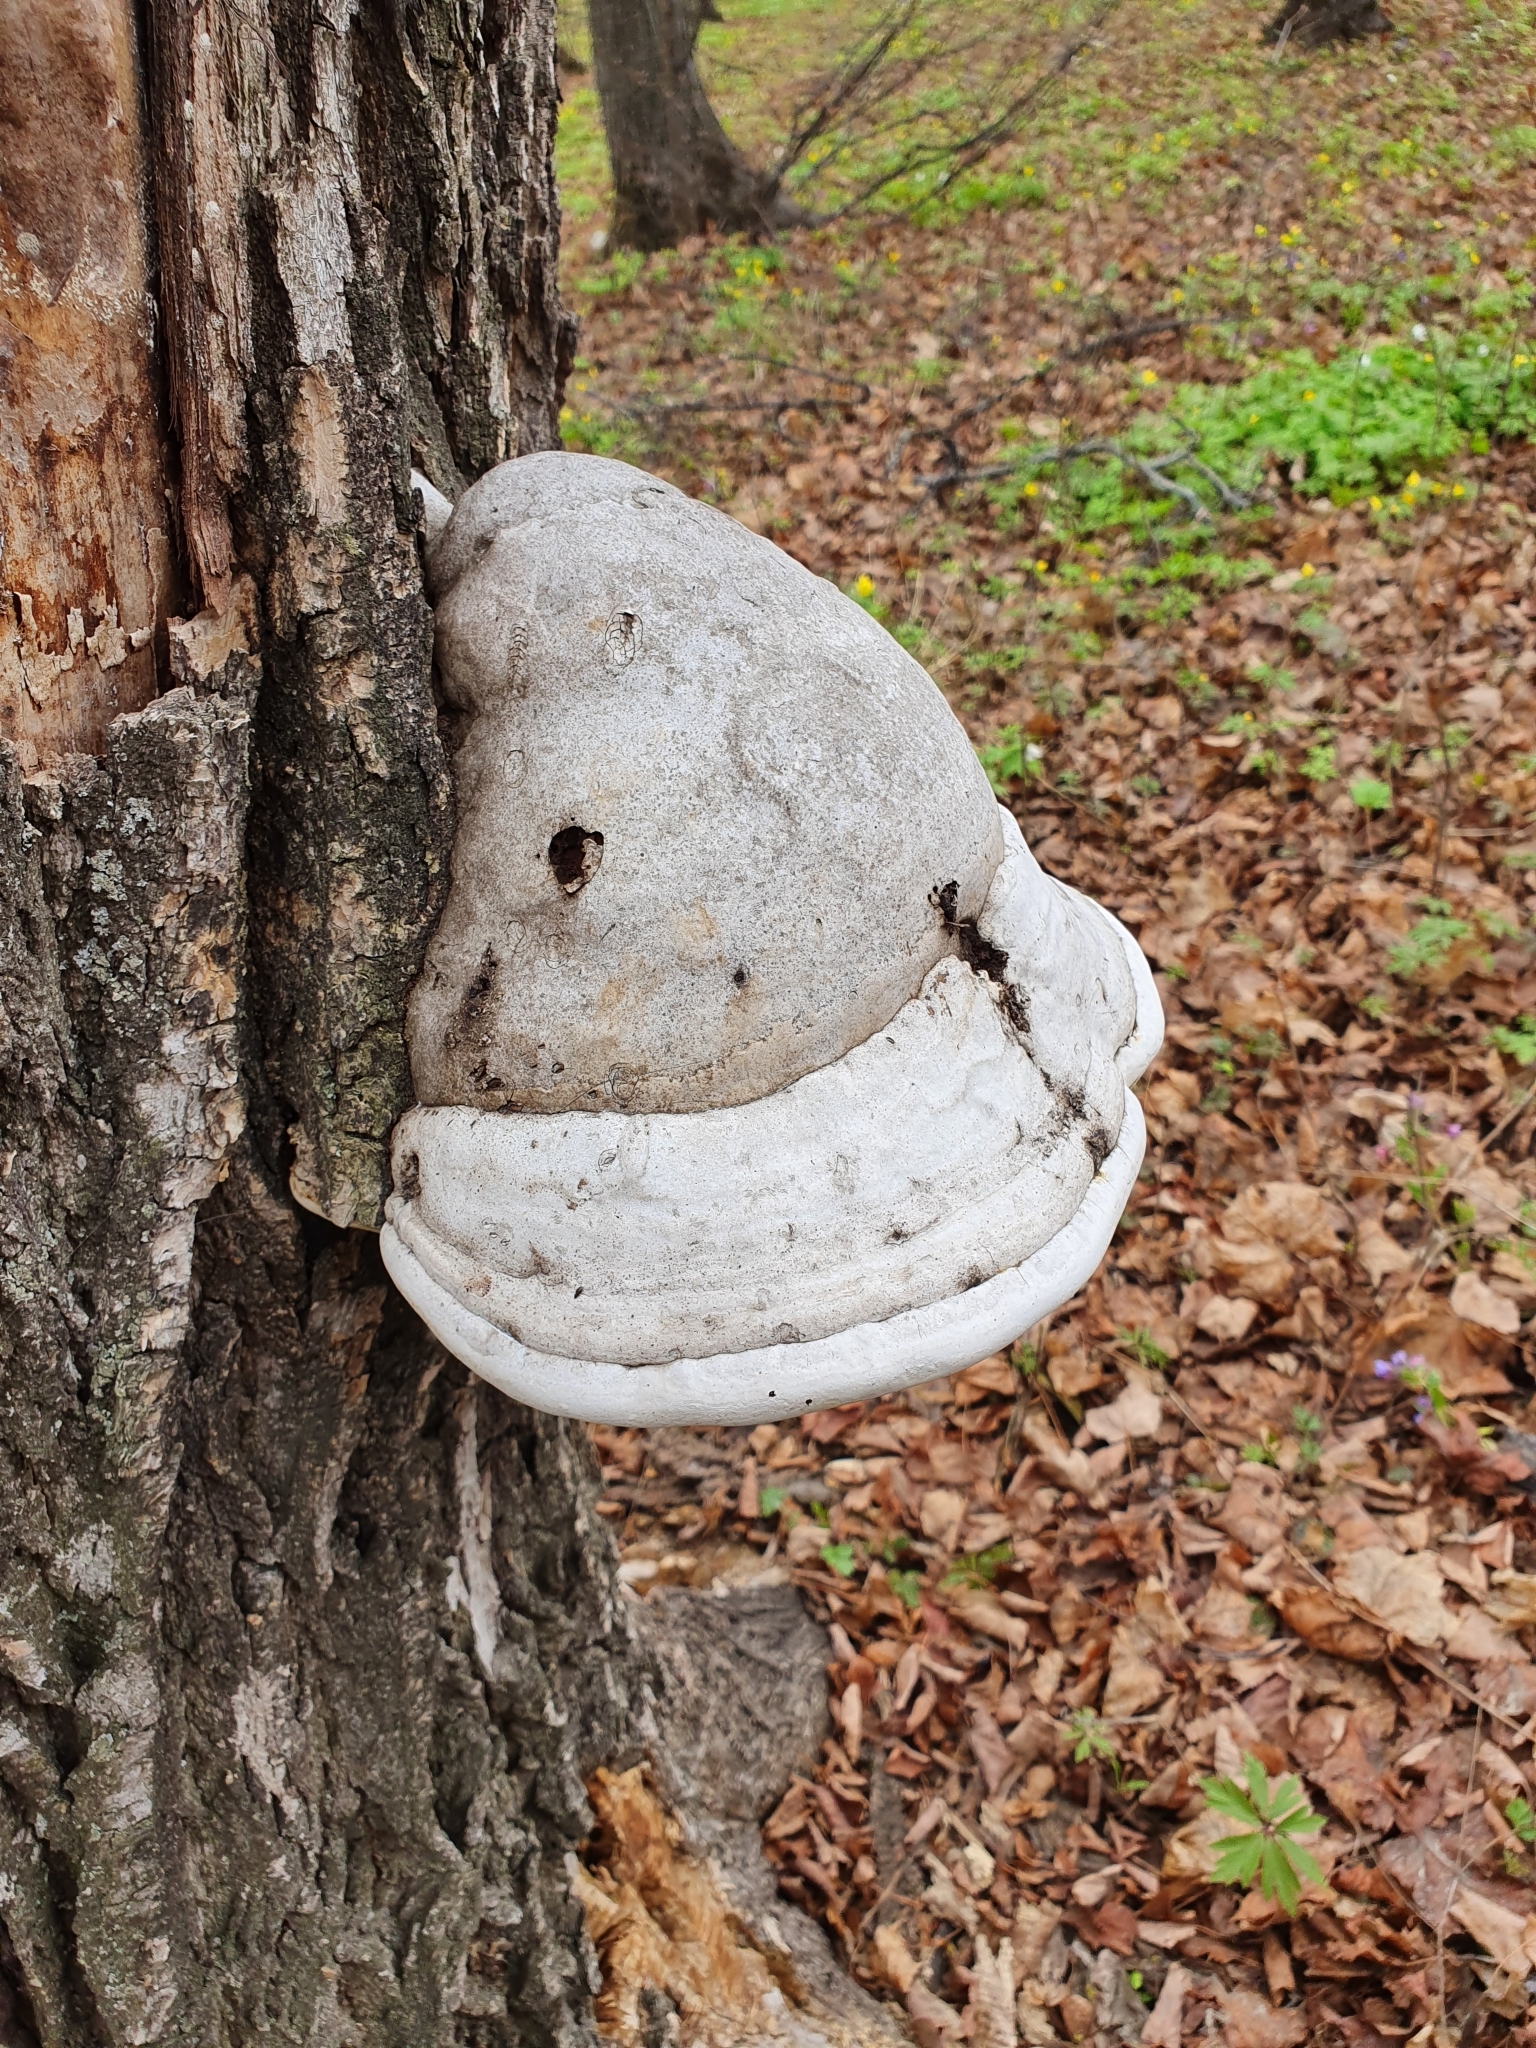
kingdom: Fungi
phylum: Basidiomycota
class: Agaricomycetes
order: Polyporales
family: Polyporaceae
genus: Fomes
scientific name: Fomes fomentarius
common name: Hoof fungus
